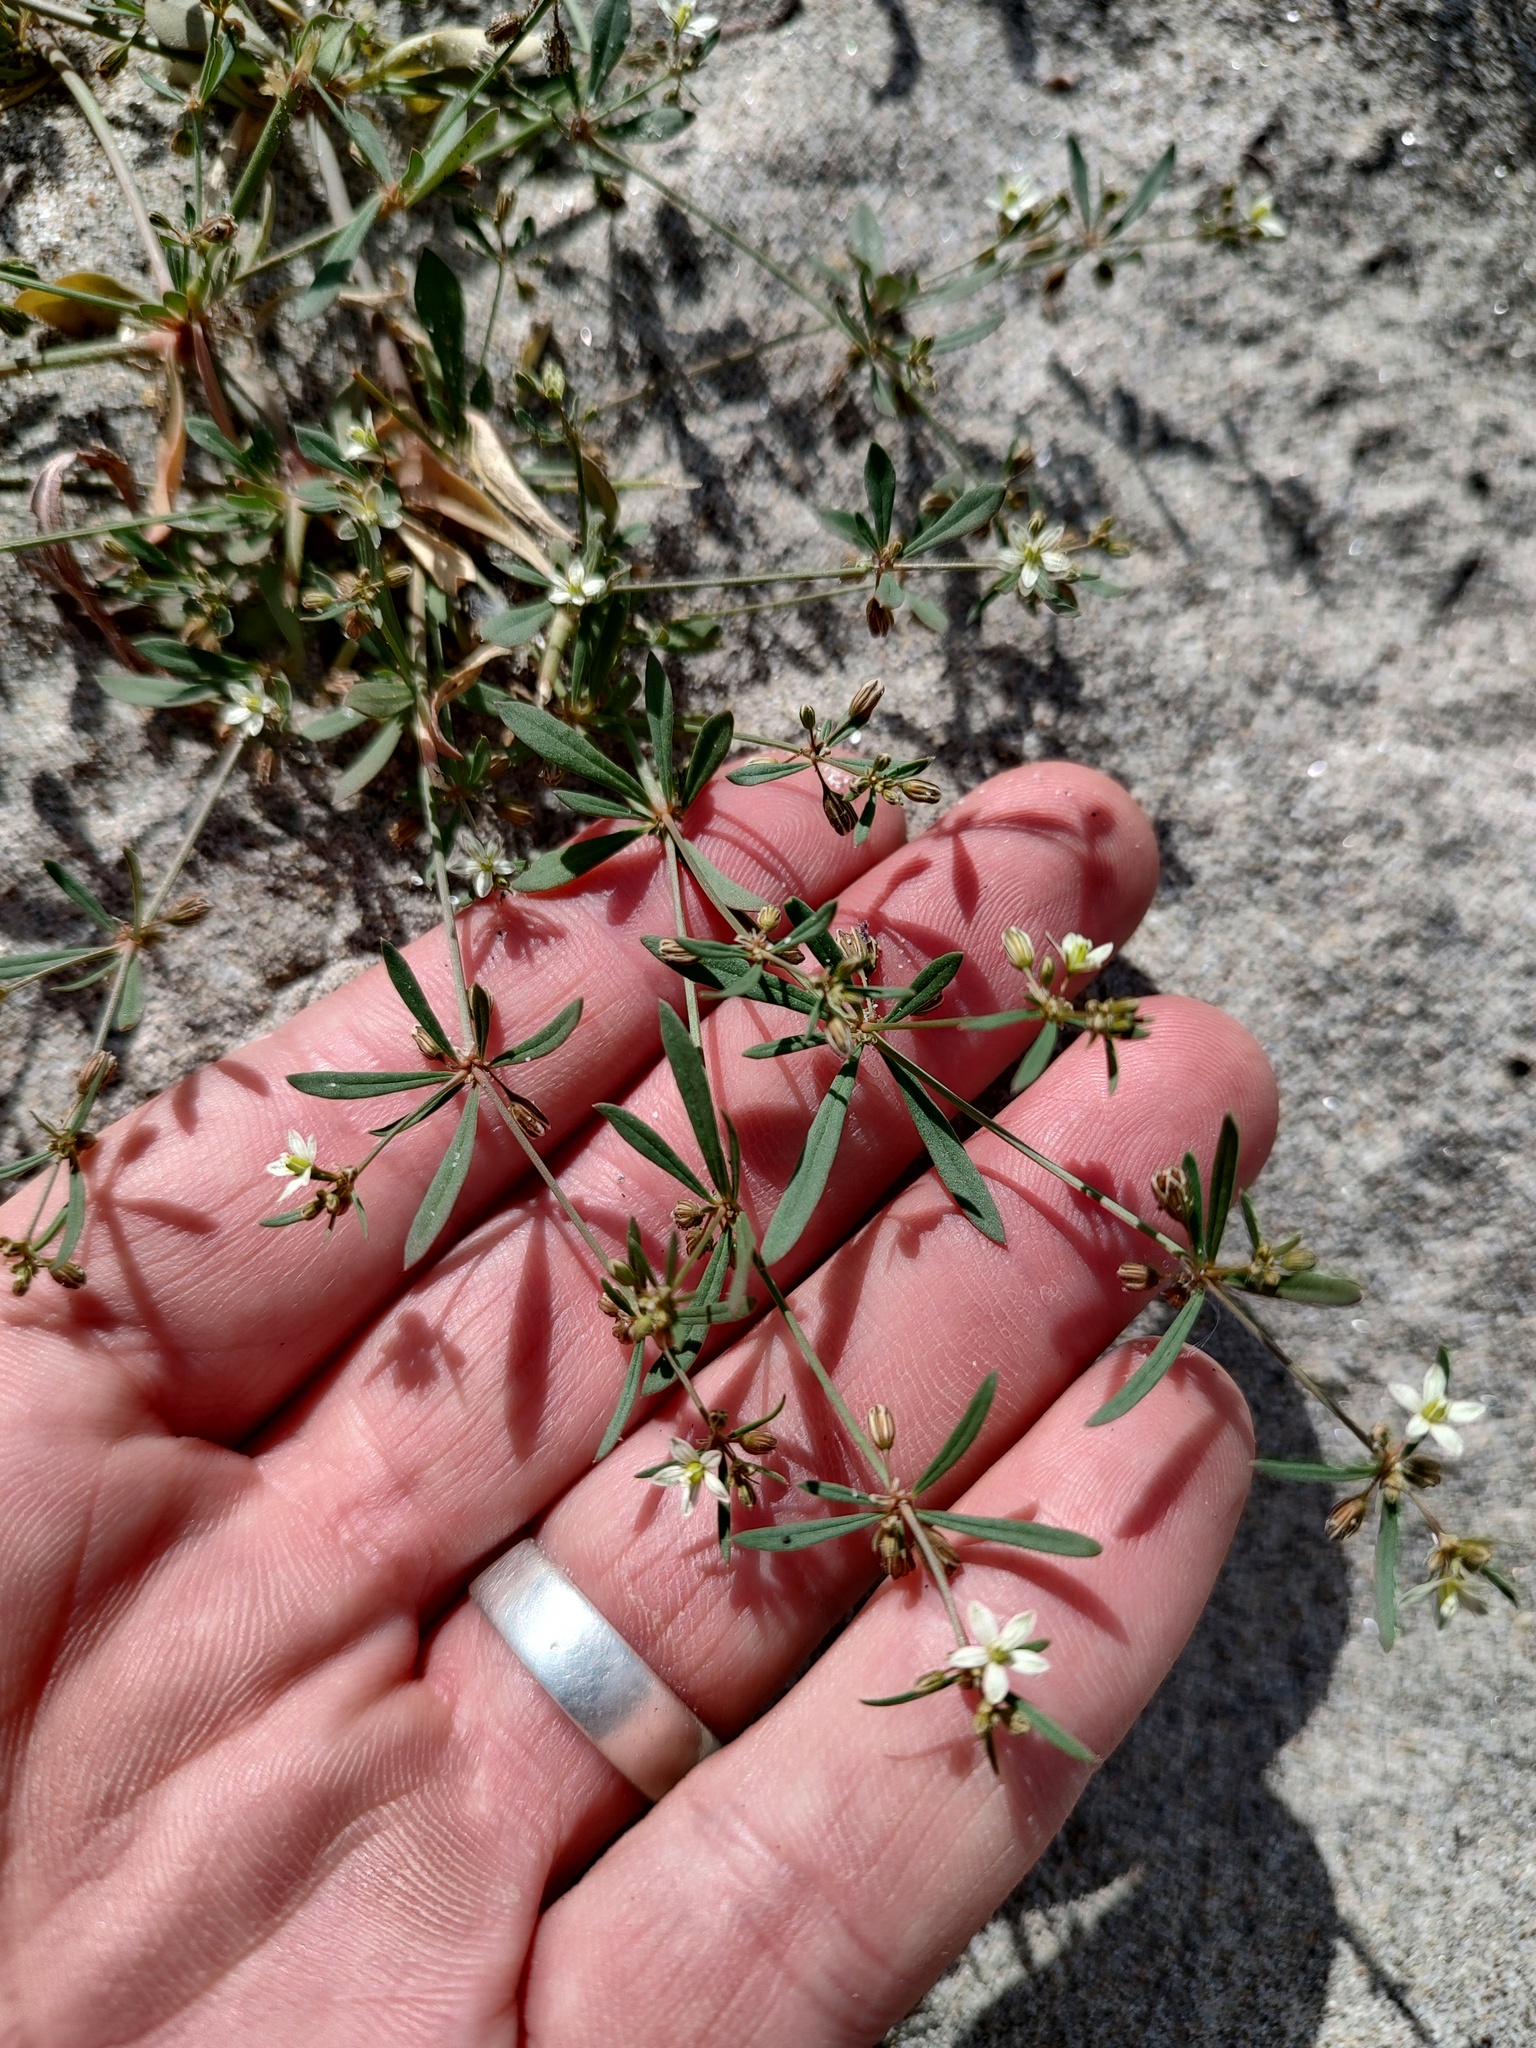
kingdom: Plantae
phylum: Tracheophyta
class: Magnoliopsida
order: Caryophyllales
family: Molluginaceae
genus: Mollugo
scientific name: Mollugo verticillata
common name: Green carpetweed
